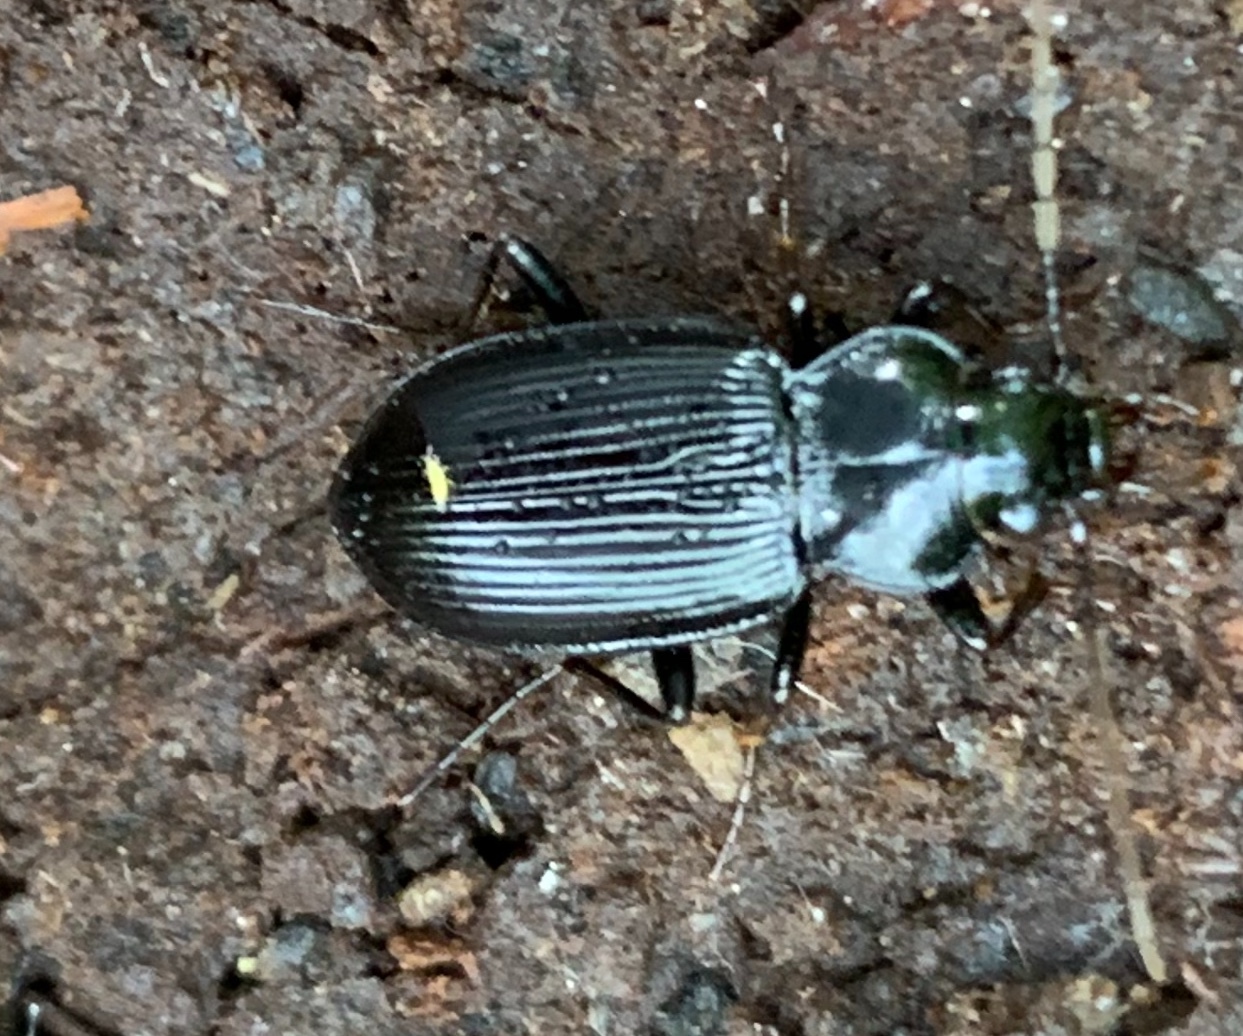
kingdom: Animalia
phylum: Arthropoda
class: Insecta
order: Coleoptera
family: Carabidae
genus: Nebria
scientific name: Nebria brevicollis
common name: Short-necked gazelle beetle
